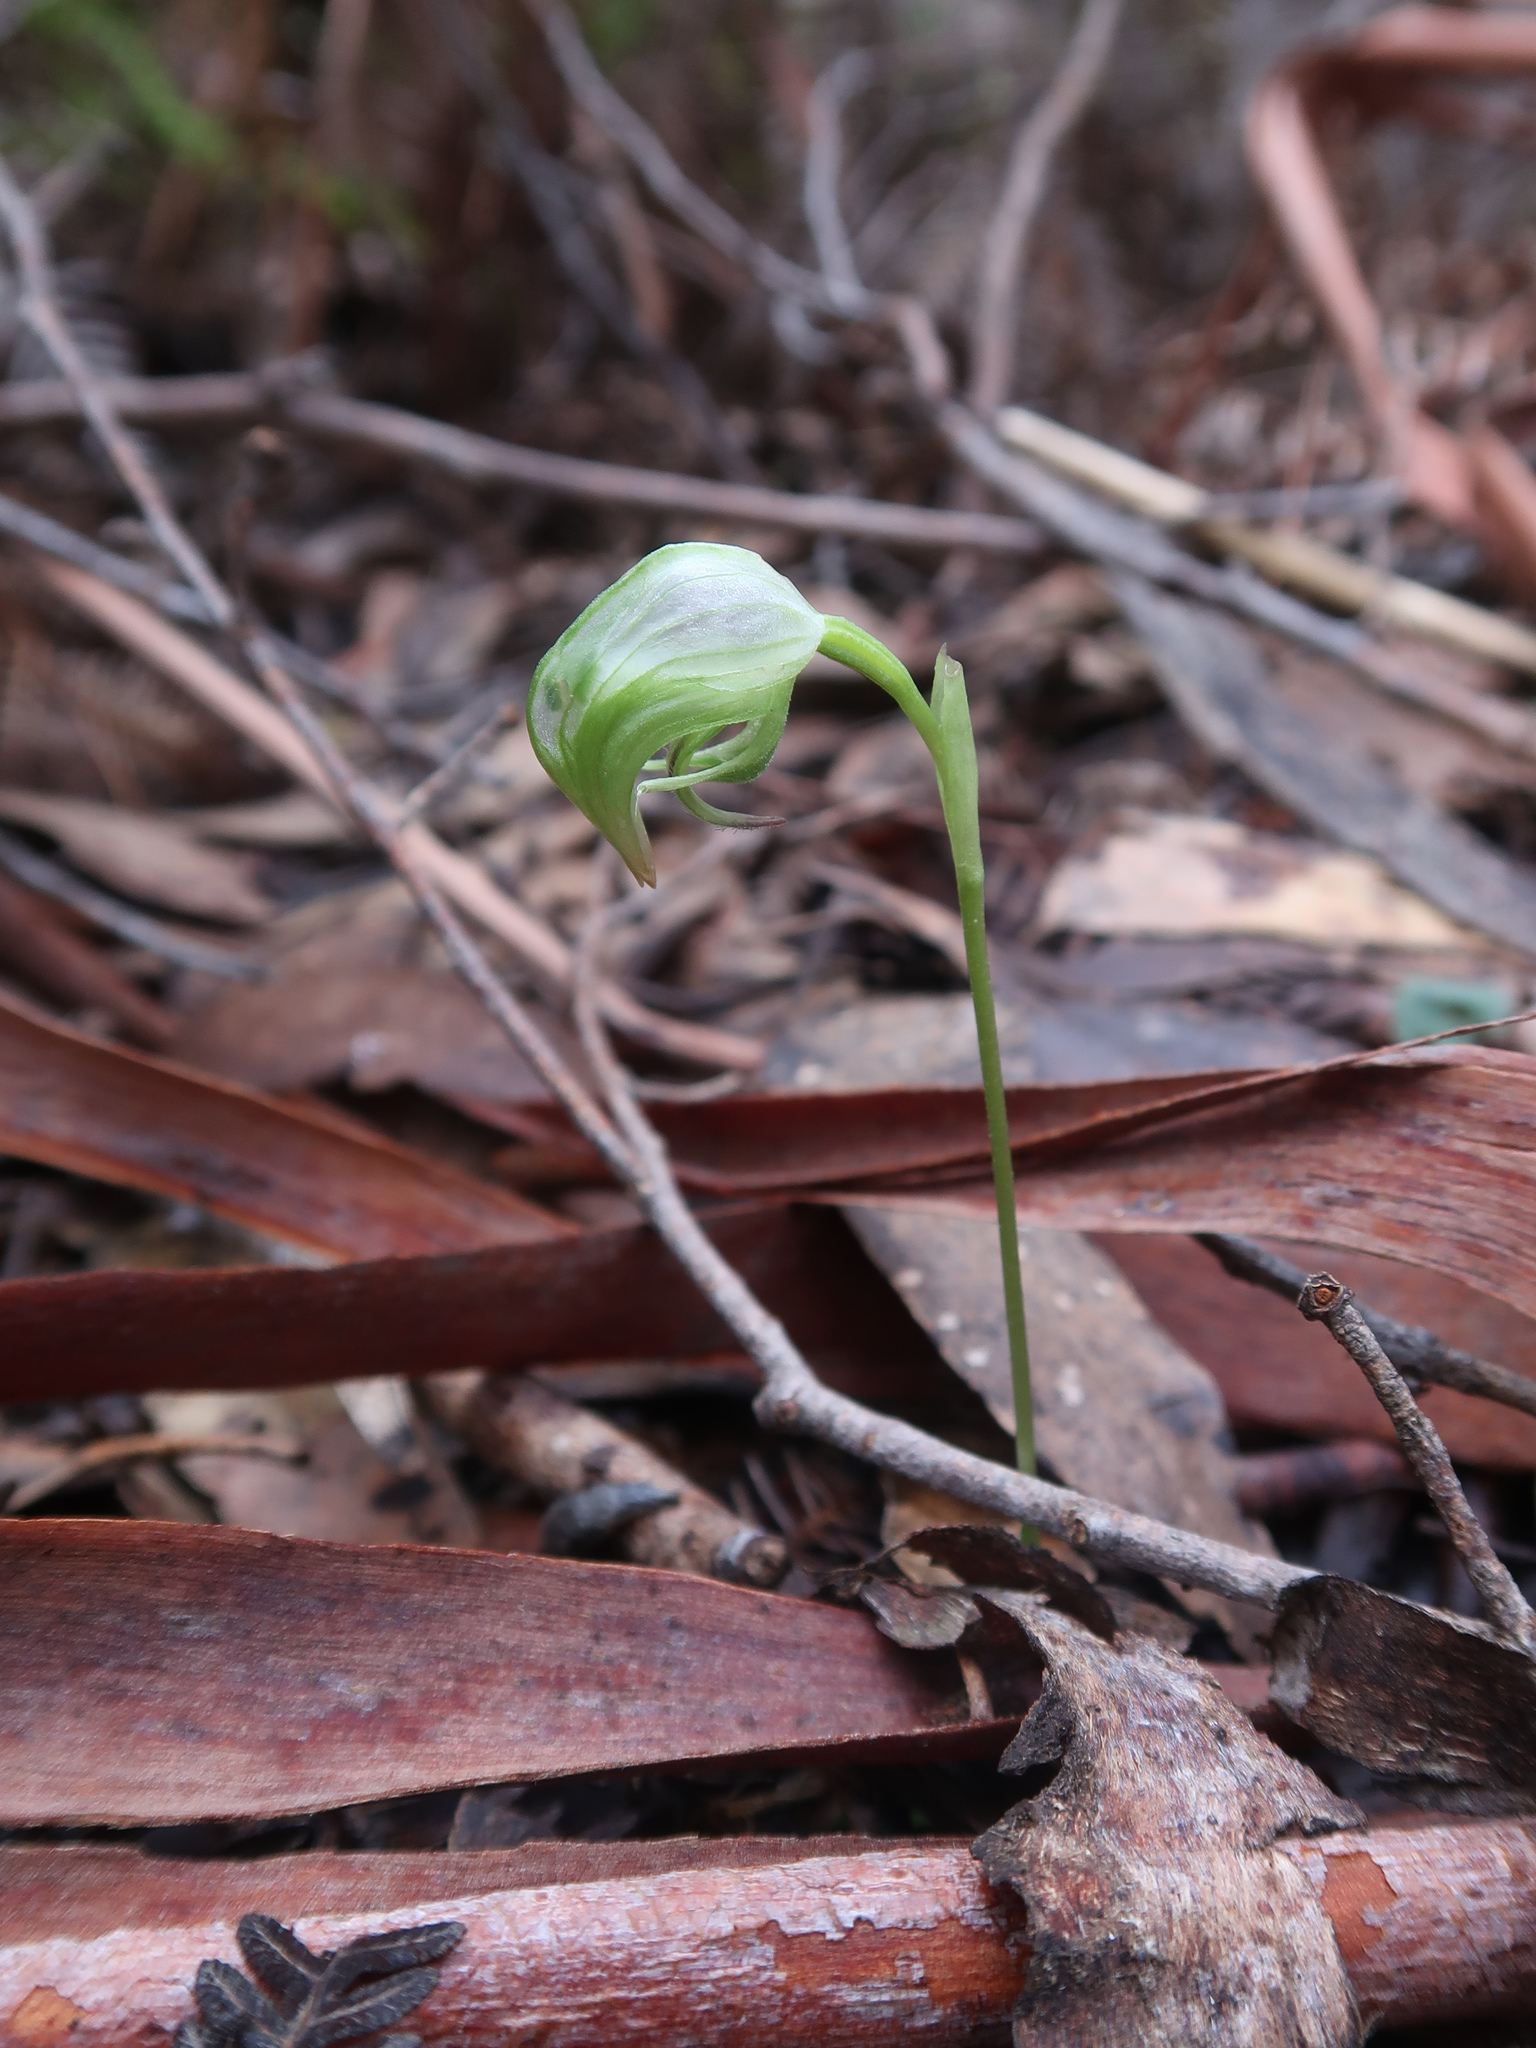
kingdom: Plantae
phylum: Tracheophyta
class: Liliopsida
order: Asparagales
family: Orchidaceae
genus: Pterostylis
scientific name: Pterostylis nutans
